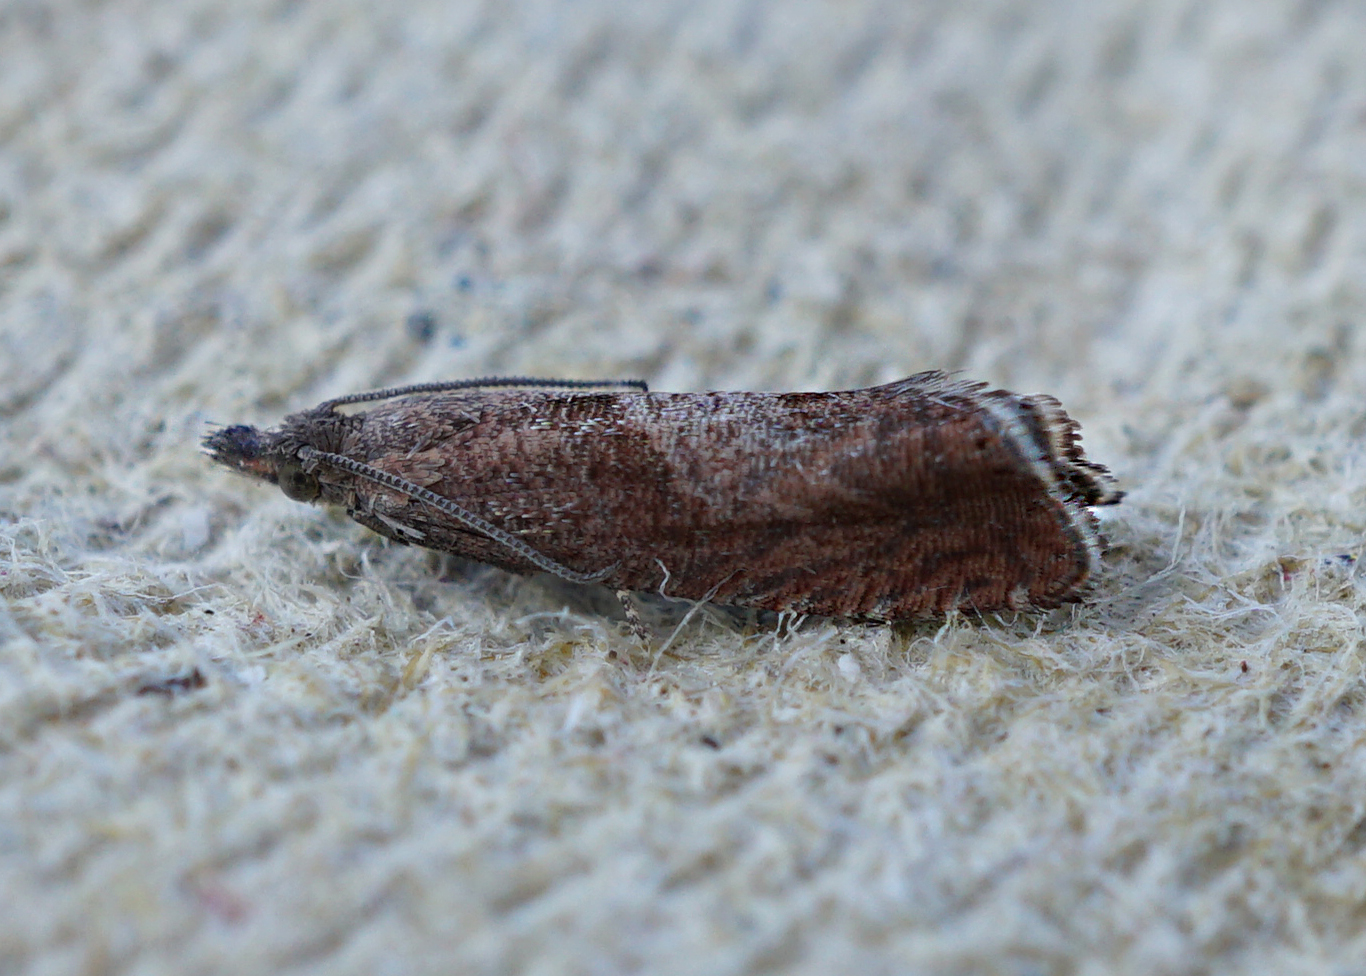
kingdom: Animalia
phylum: Arthropoda
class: Insecta
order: Lepidoptera
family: Tortricidae
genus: Dichrorampha
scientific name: Dichrorampha acuminatana
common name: Sharp-winged drill
